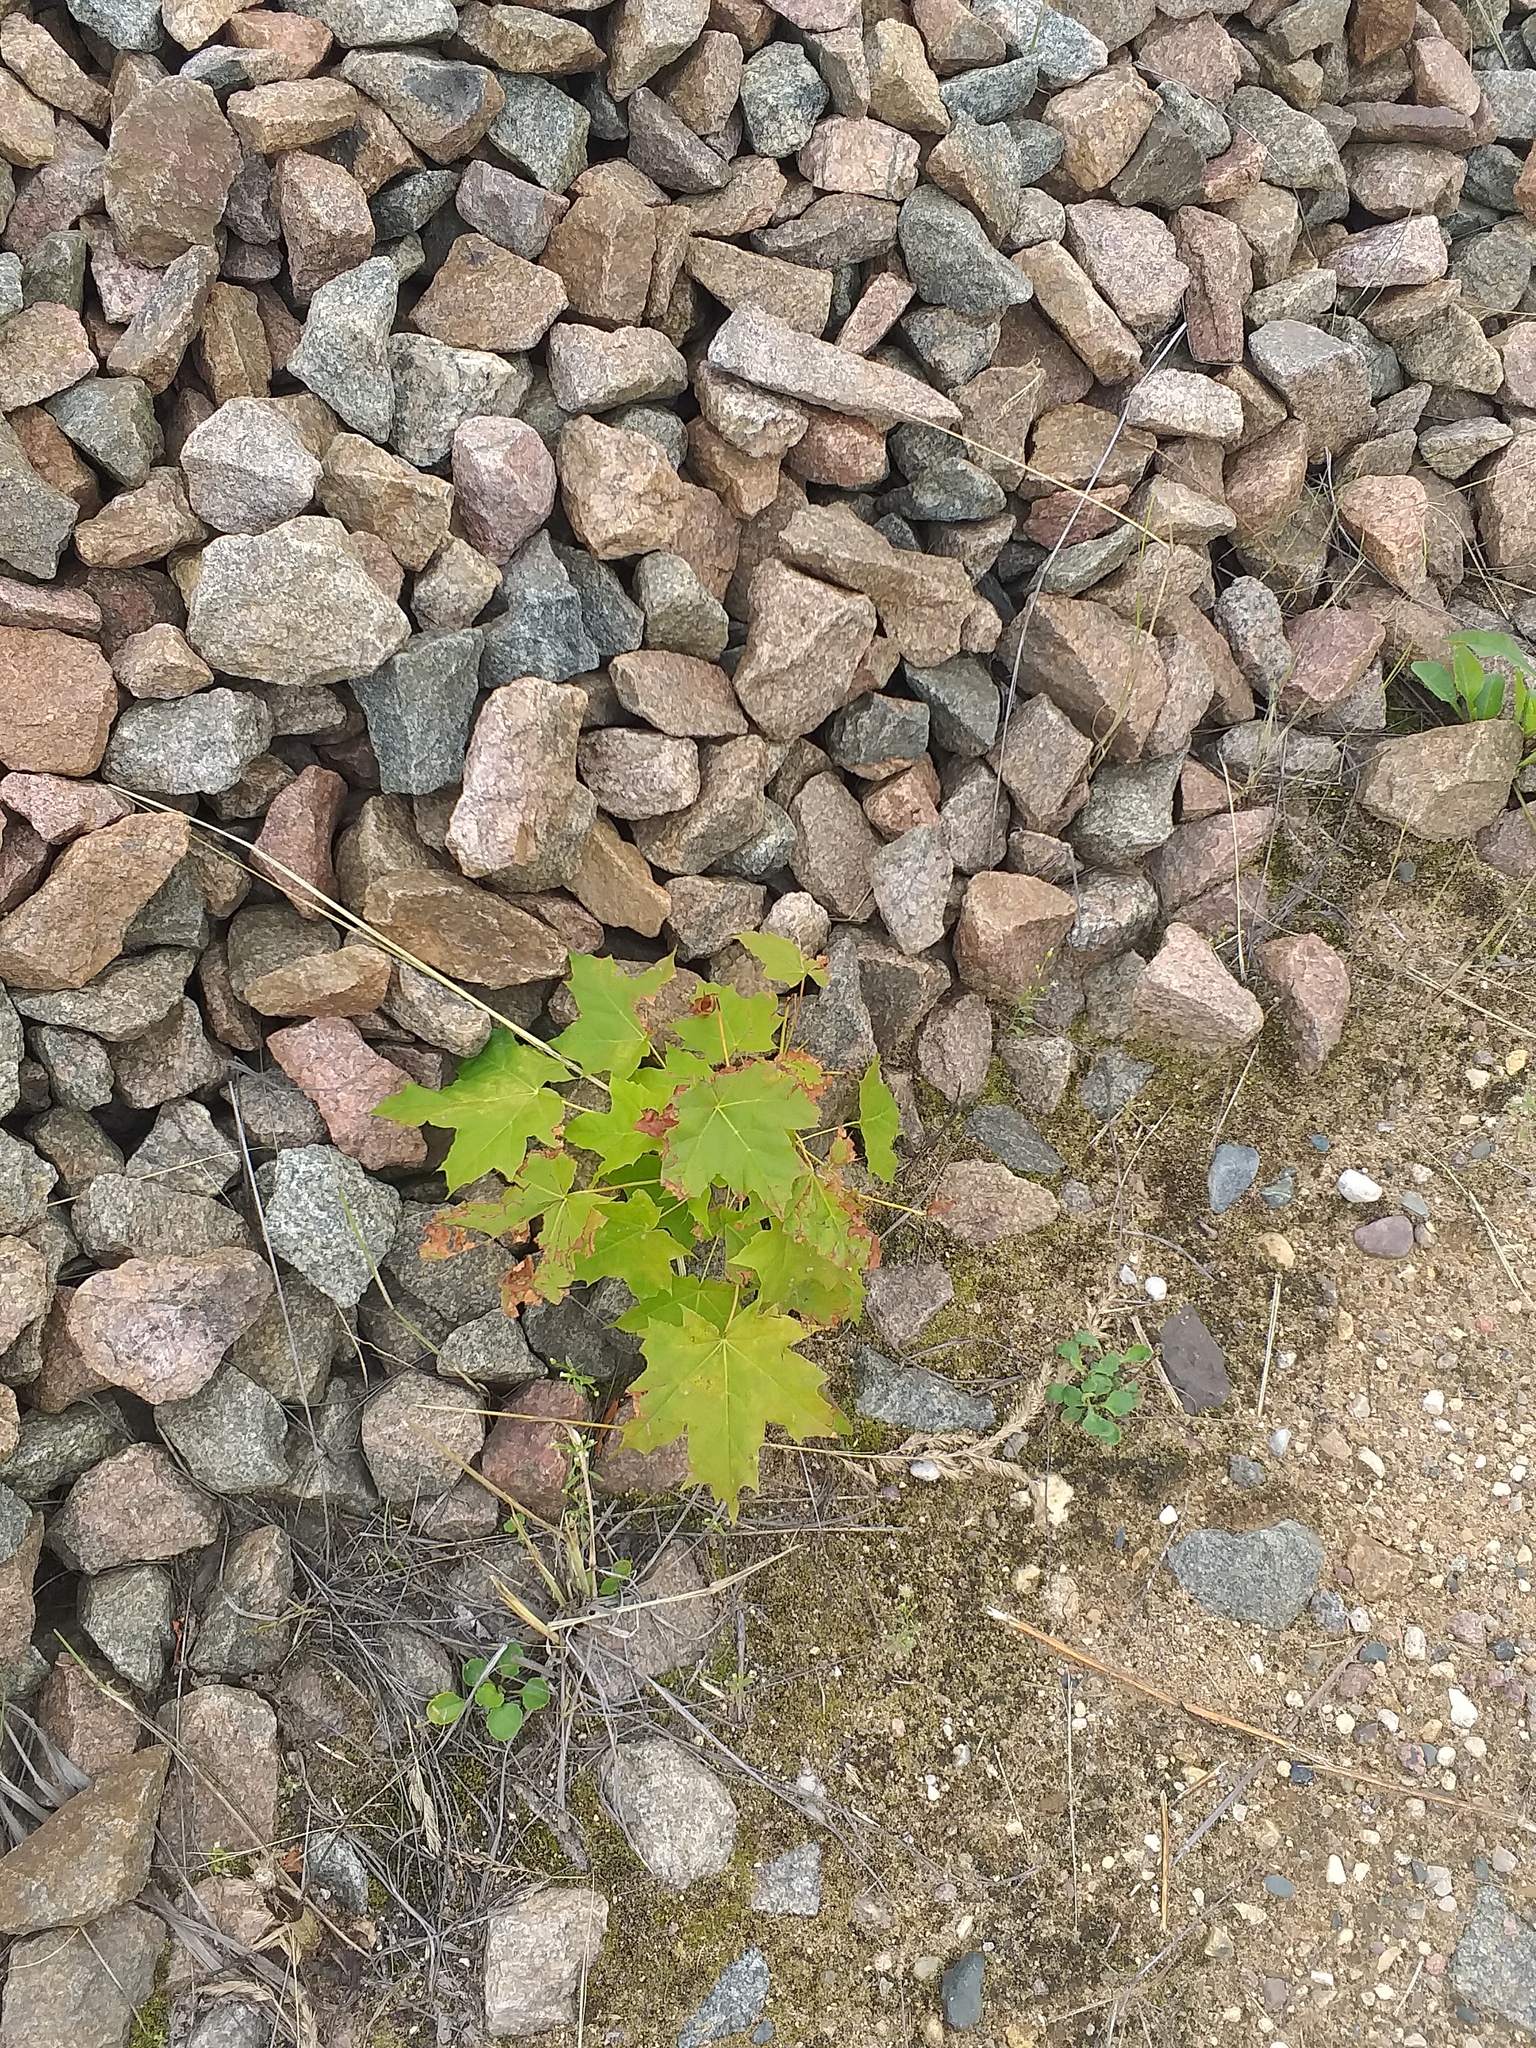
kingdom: Plantae
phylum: Tracheophyta
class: Magnoliopsida
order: Sapindales
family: Sapindaceae
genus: Acer
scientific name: Acer platanoides
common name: Norway maple
